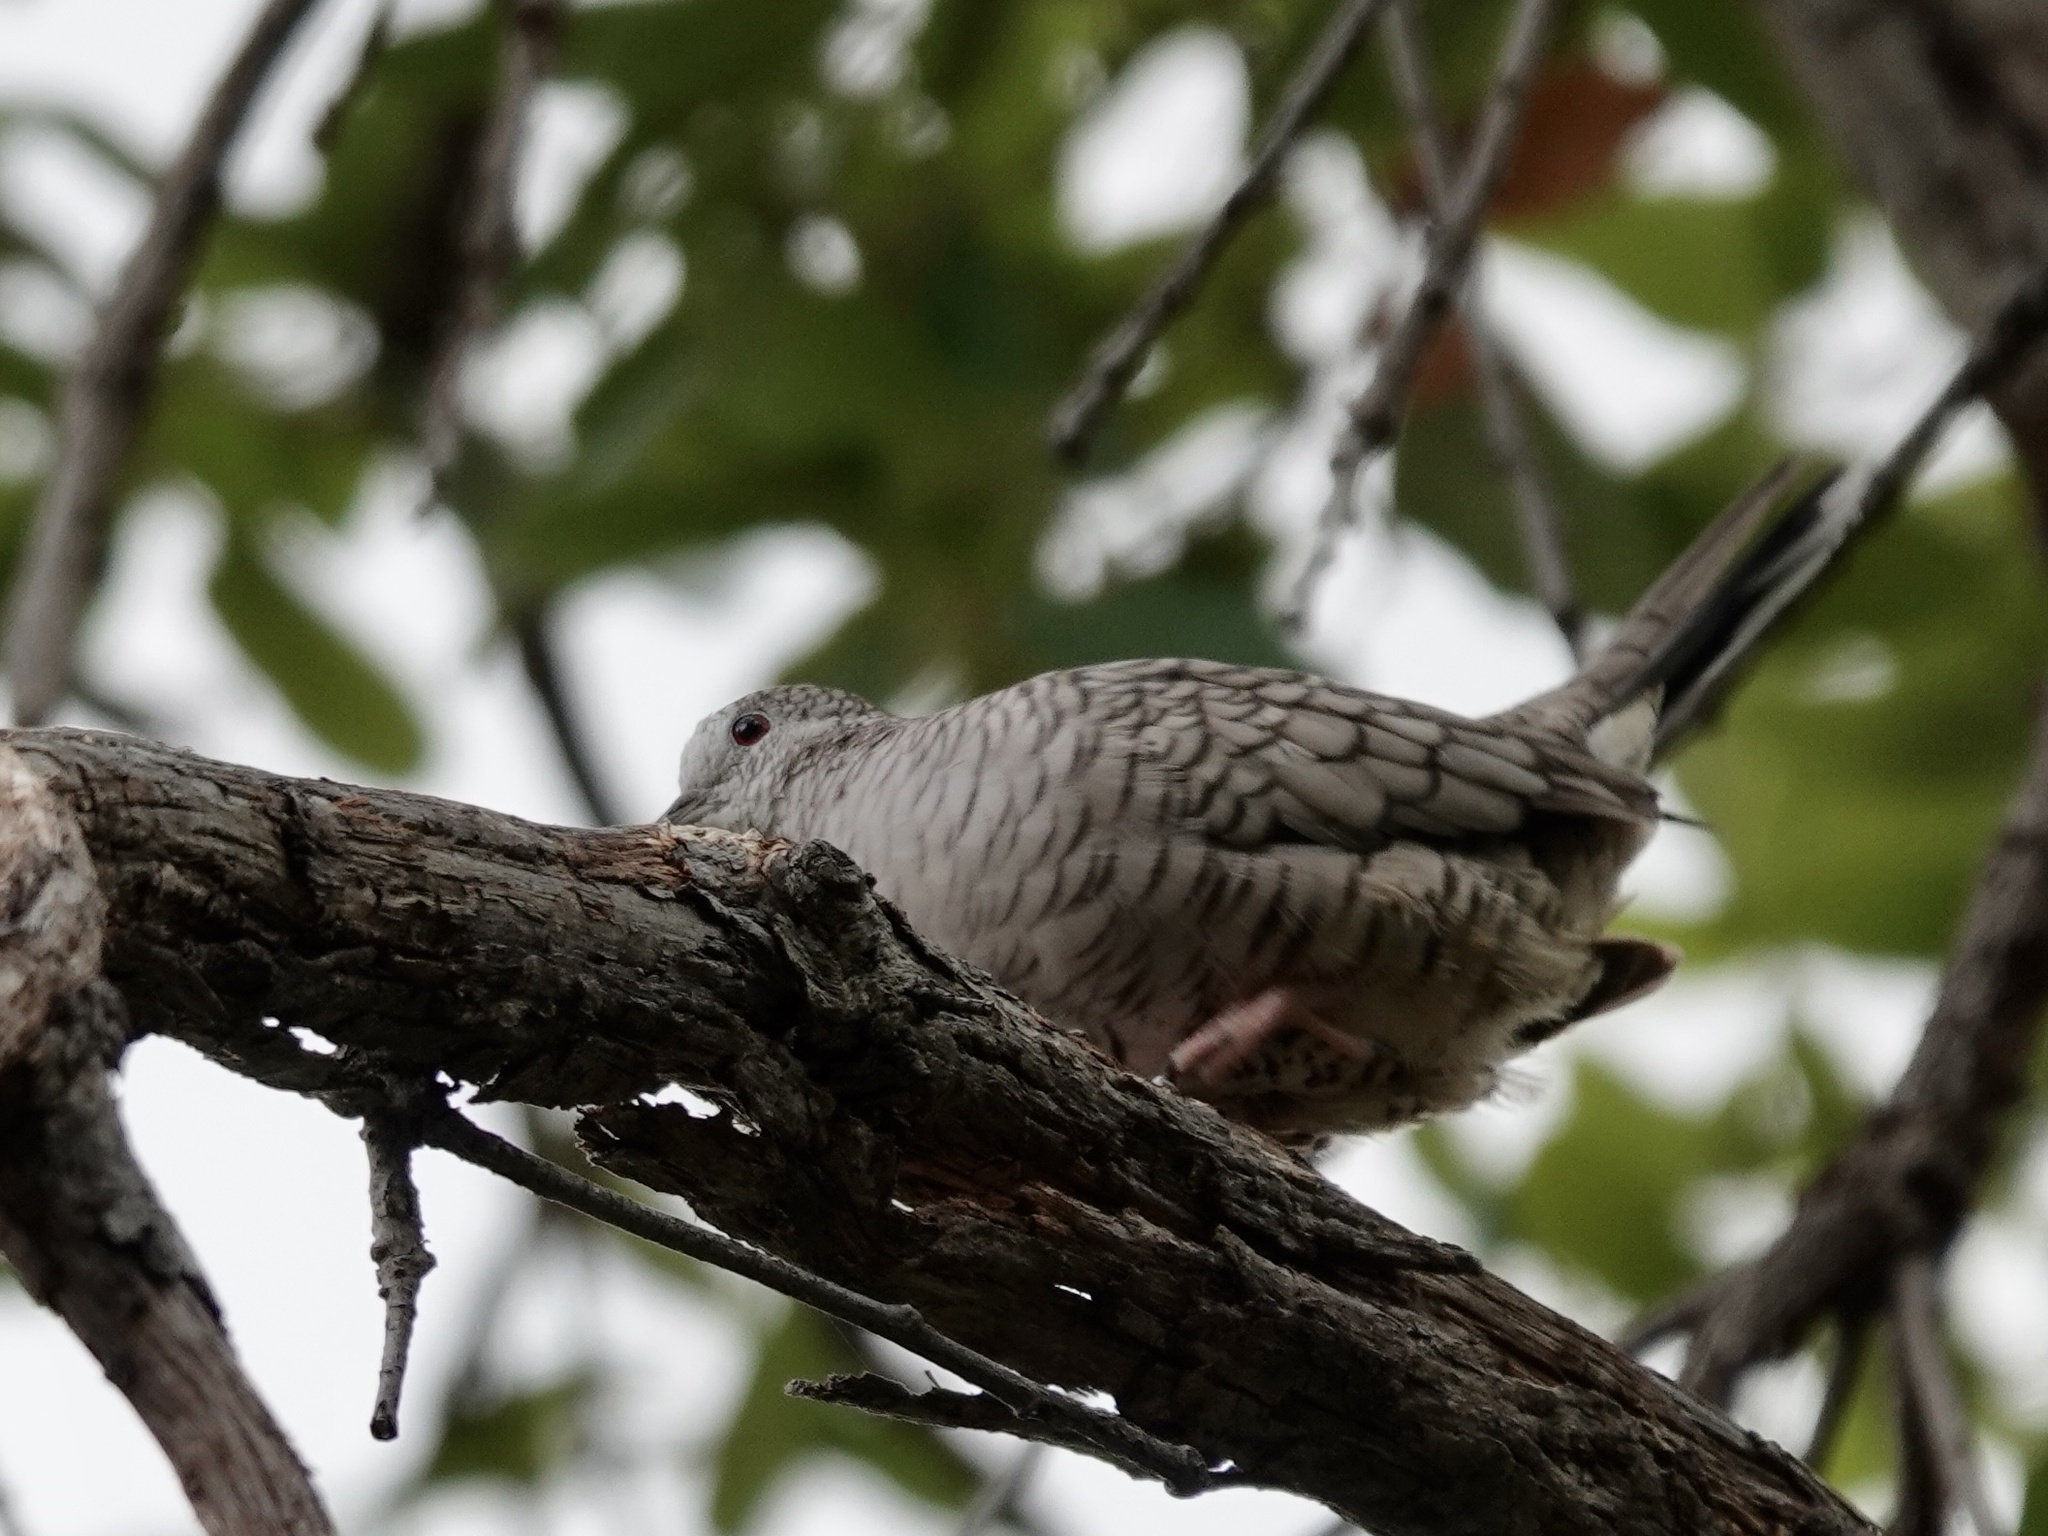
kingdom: Animalia
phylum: Chordata
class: Aves
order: Columbiformes
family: Columbidae
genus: Columbina
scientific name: Columbina inca
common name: Inca dove
